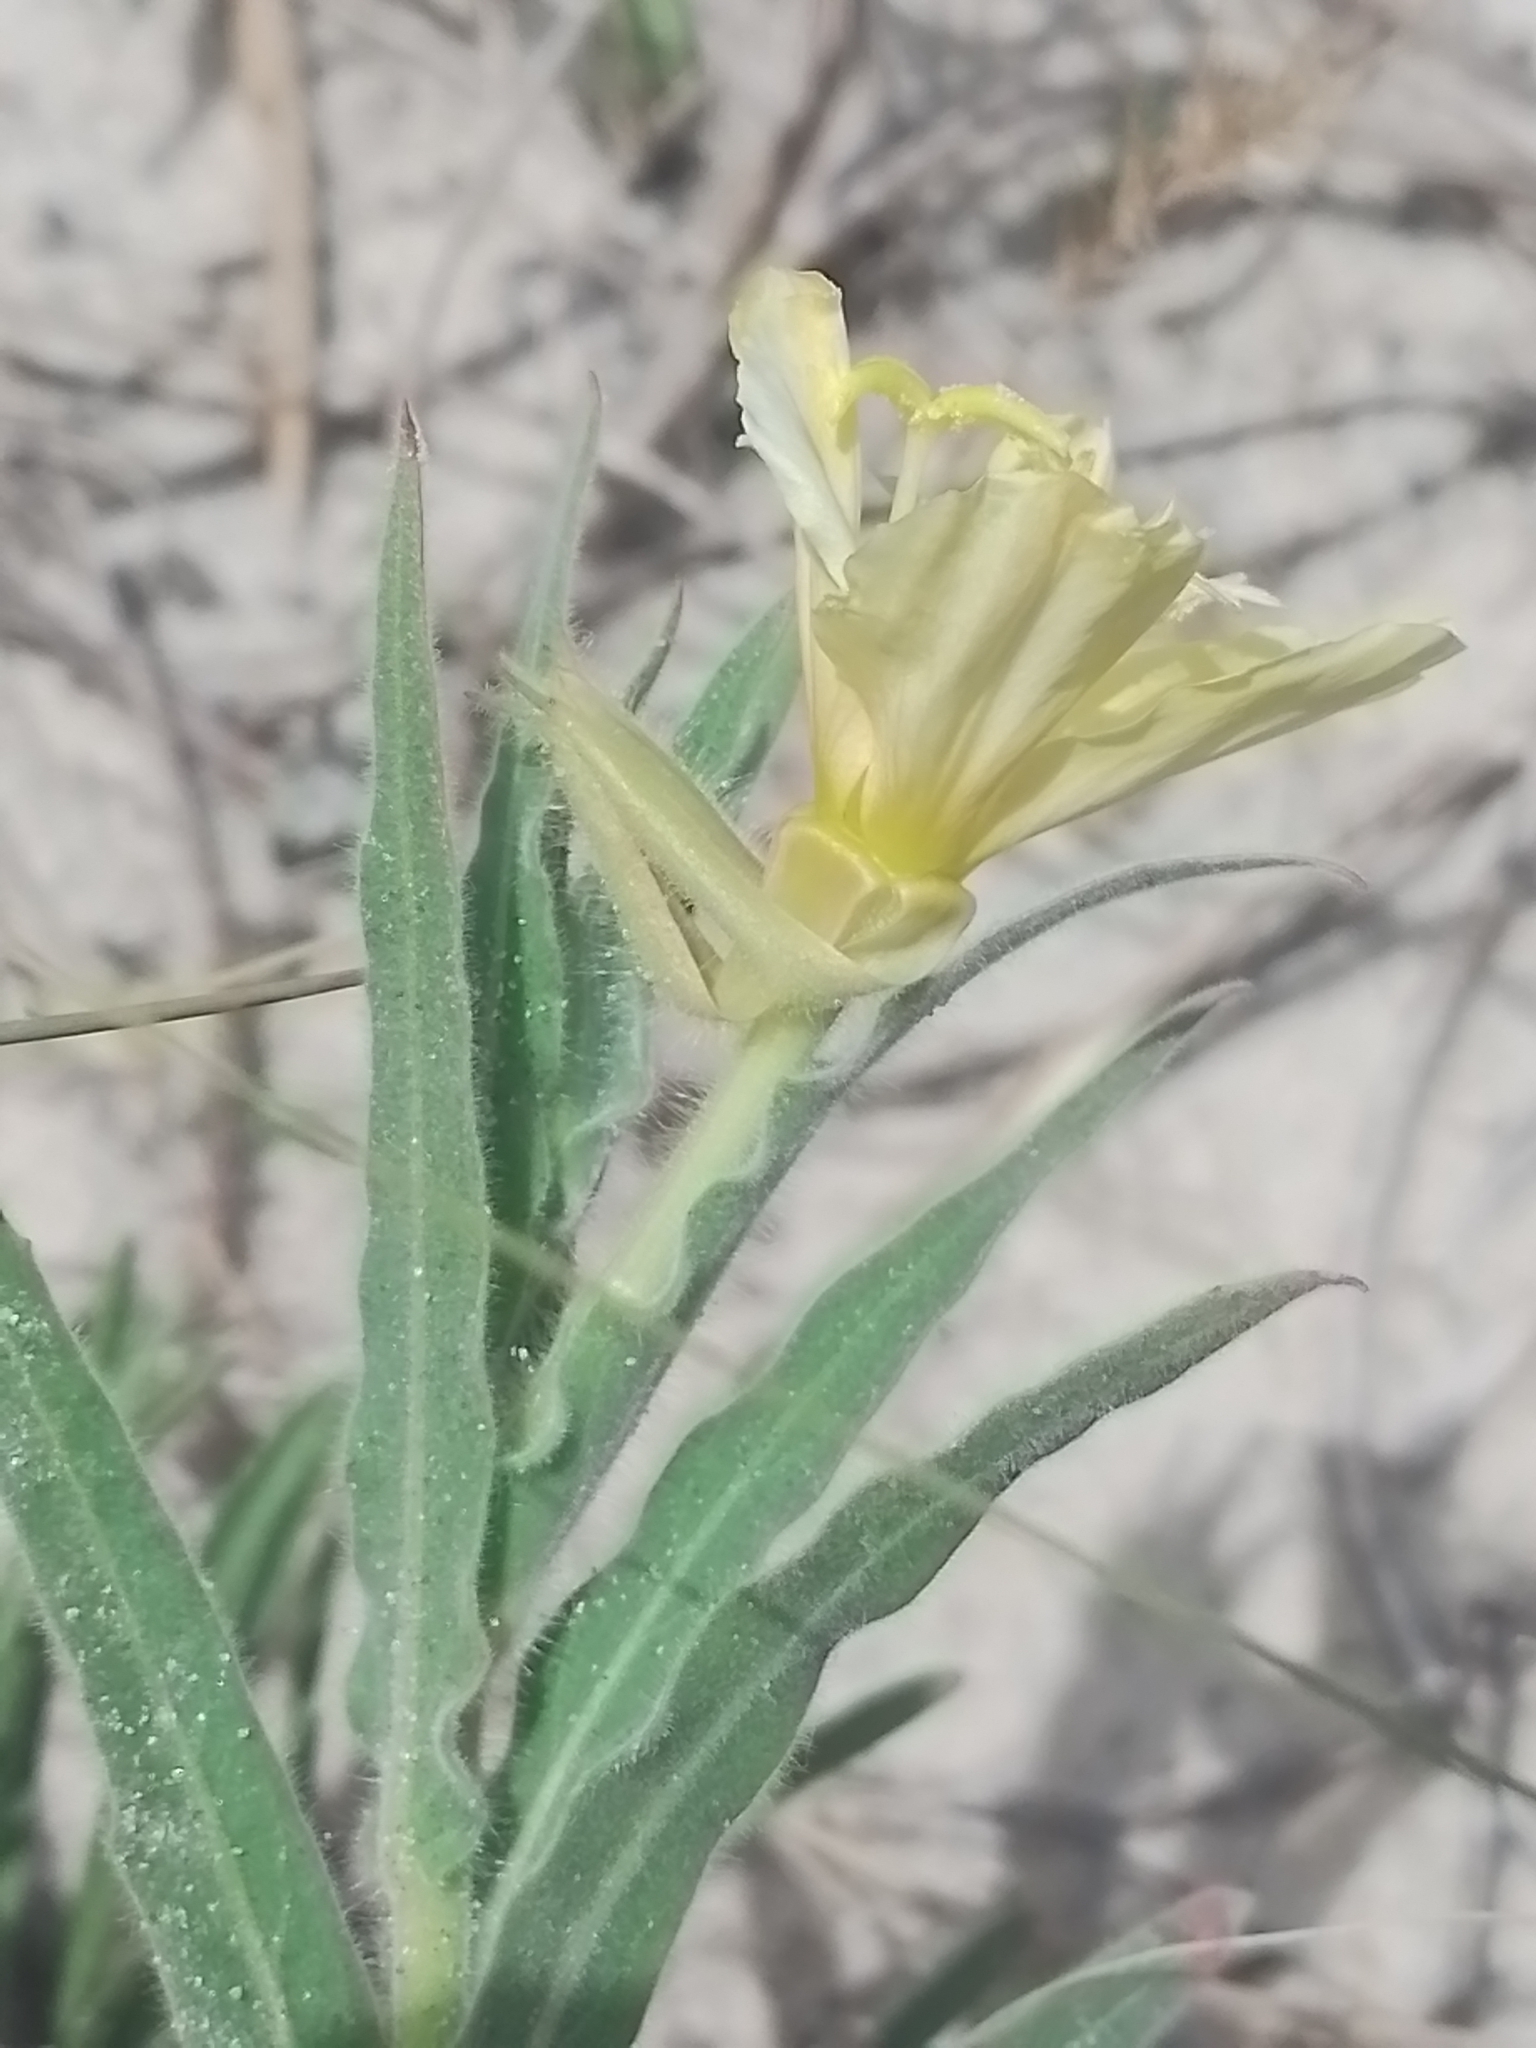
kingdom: Plantae
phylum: Tracheophyta
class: Magnoliopsida
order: Myrtales
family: Onagraceae
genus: Oenothera
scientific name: Oenothera mollissima
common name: Argentine evening primrose
